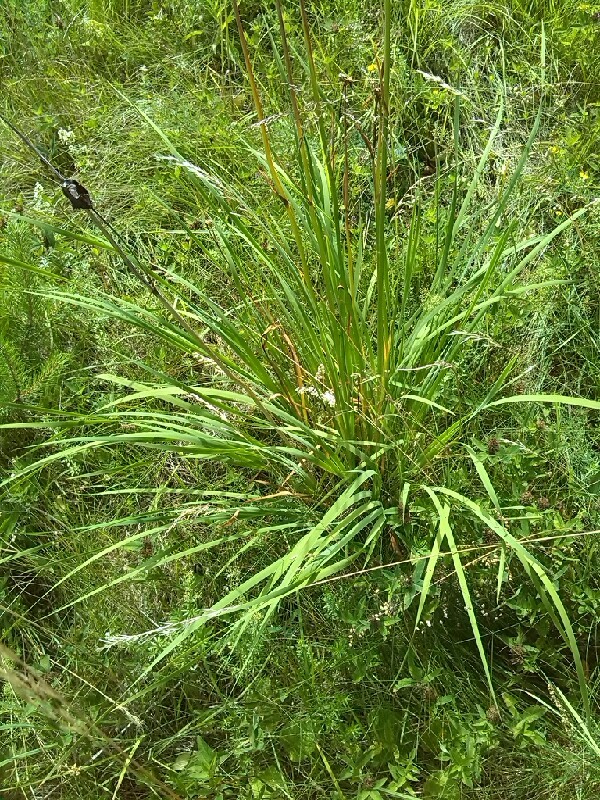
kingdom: Plantae
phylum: Tracheophyta
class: Liliopsida
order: Asparagales
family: Iridaceae
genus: Iris
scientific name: Iris sibirica
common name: Siberian iris
